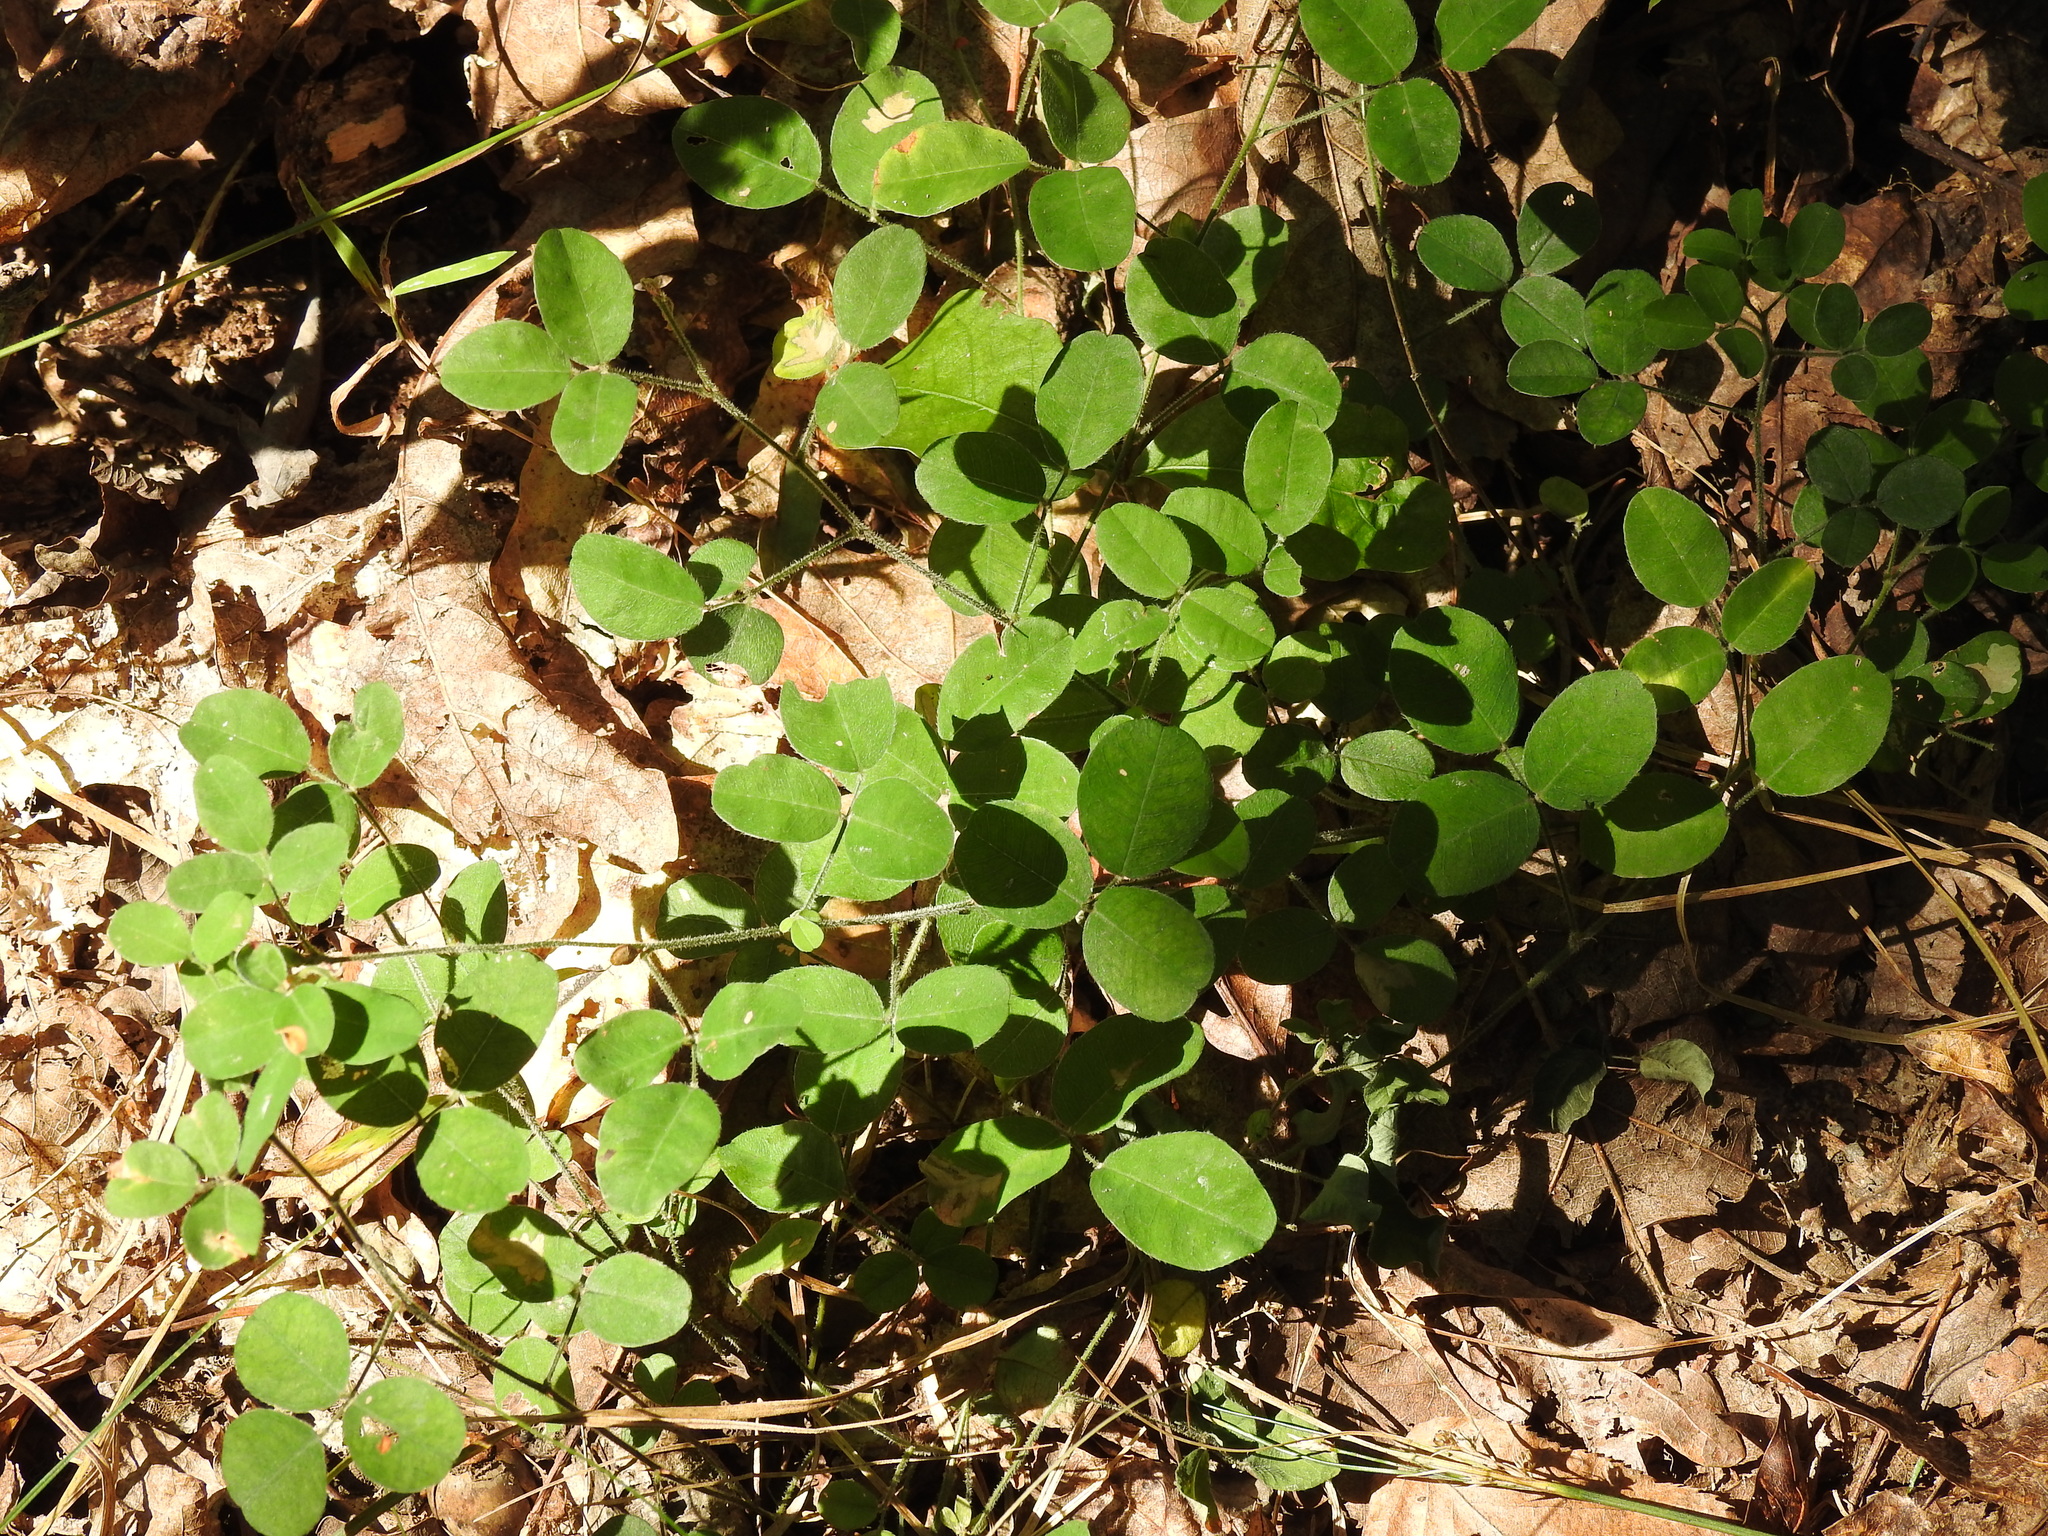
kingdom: Plantae
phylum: Tracheophyta
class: Magnoliopsida
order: Fabales
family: Fabaceae
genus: Lespedeza
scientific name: Lespedeza procumbens
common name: Downy trailing bush-clover
